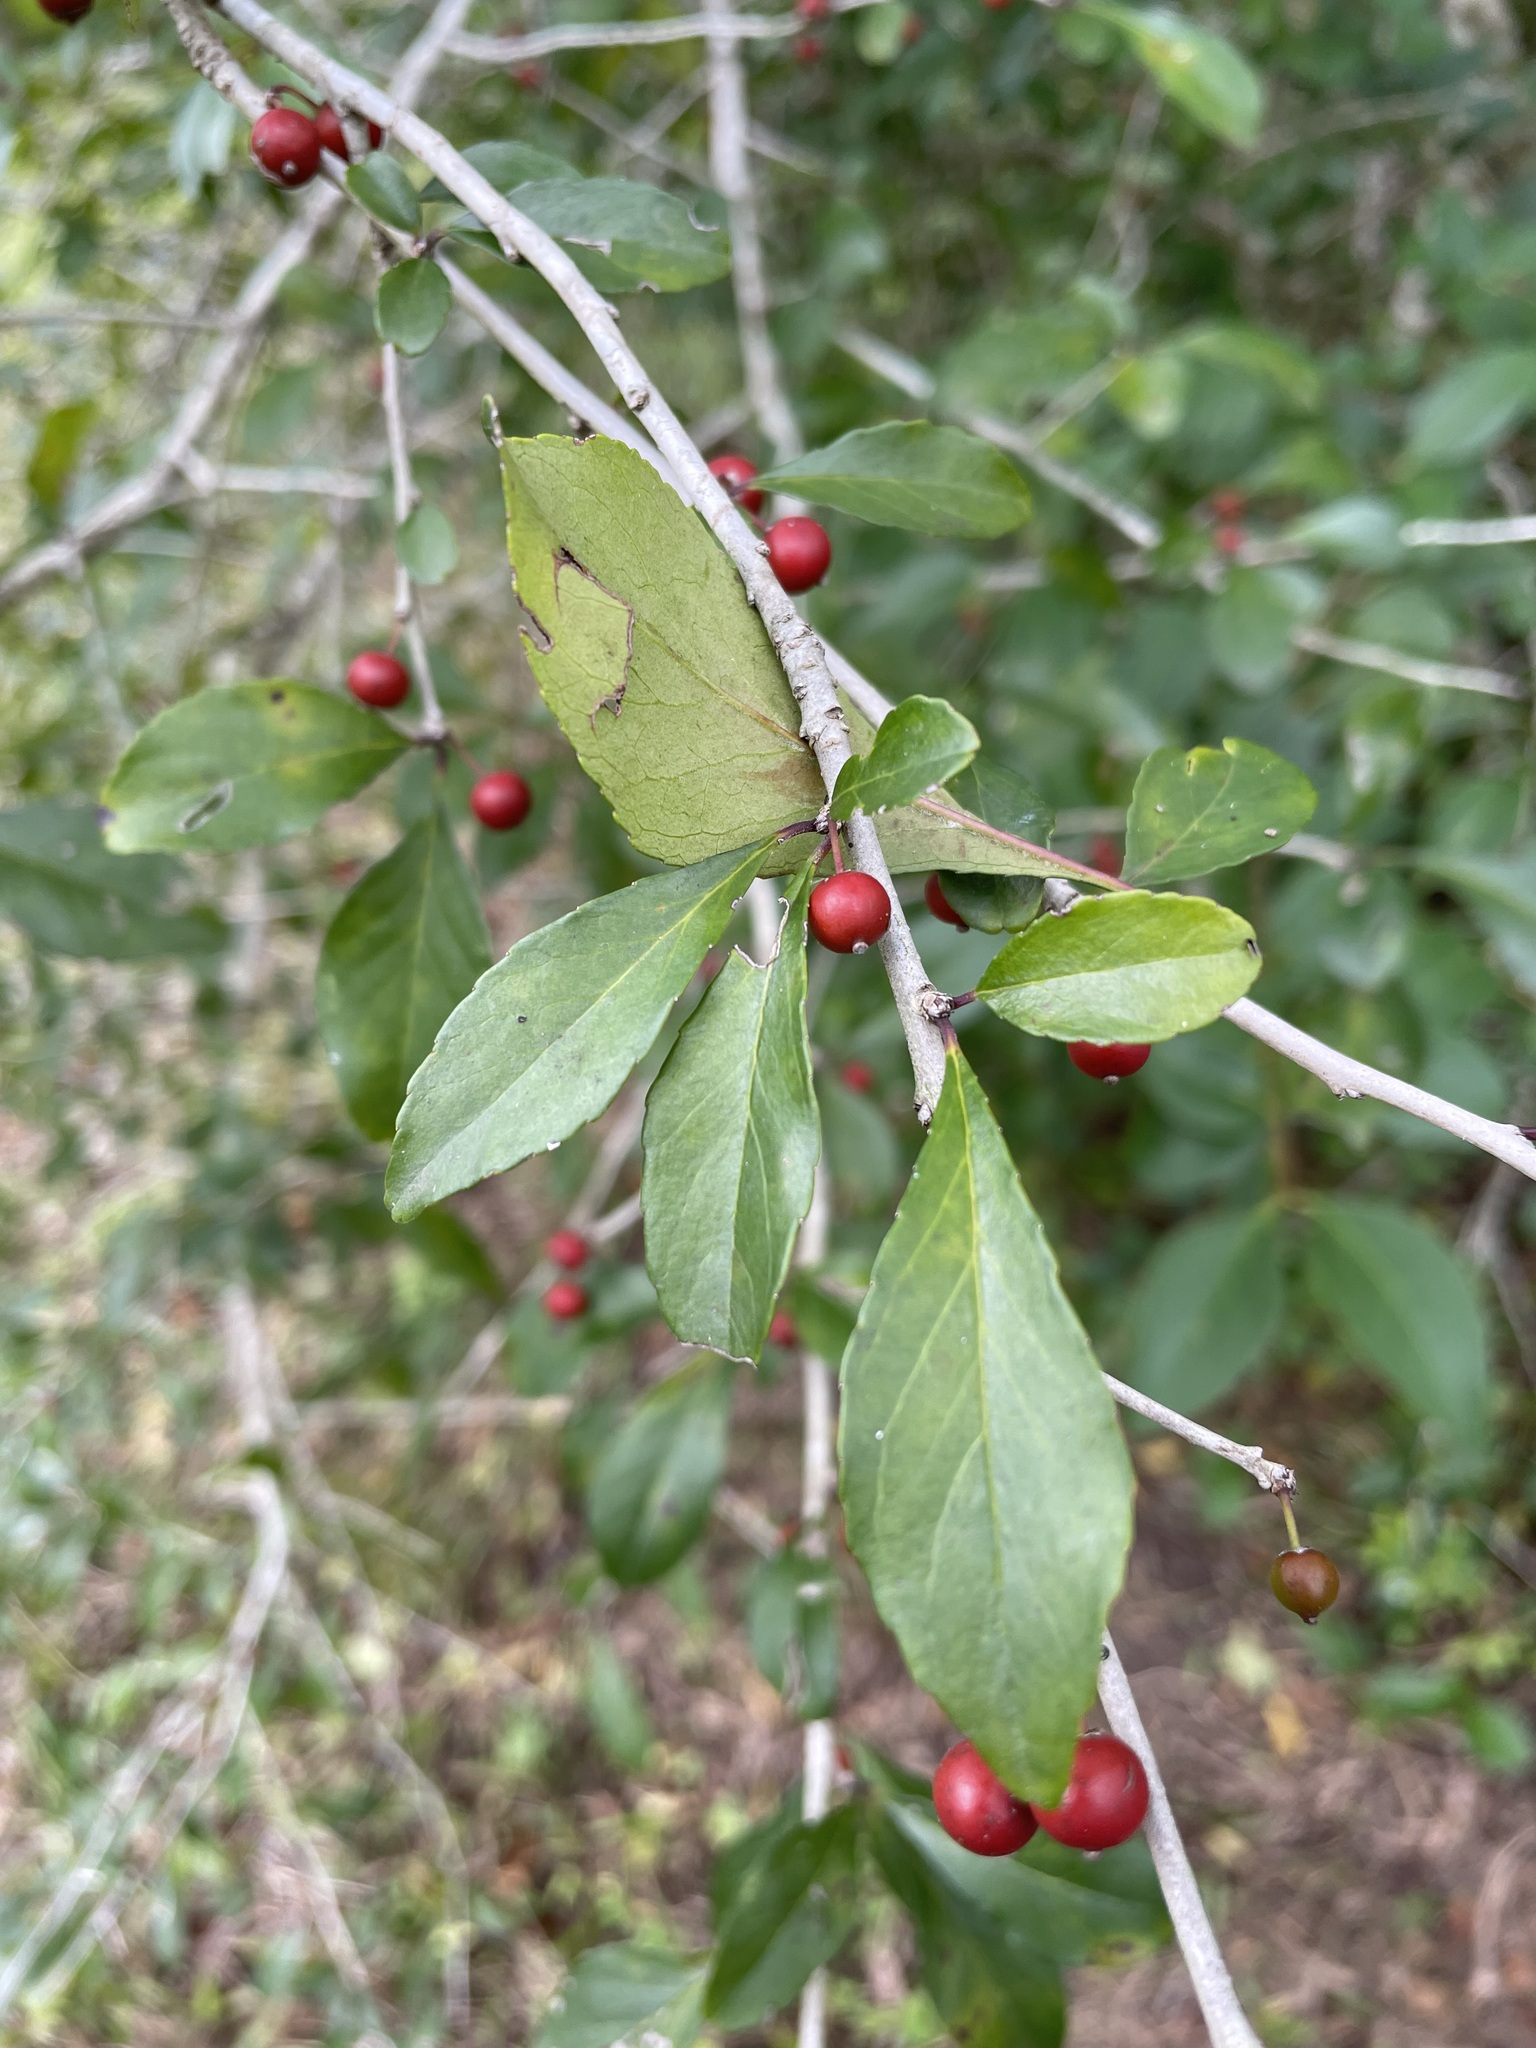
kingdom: Plantae
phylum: Tracheophyta
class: Magnoliopsida
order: Aquifoliales
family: Aquifoliaceae
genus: Ilex
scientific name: Ilex decidua
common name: Possum-haw
